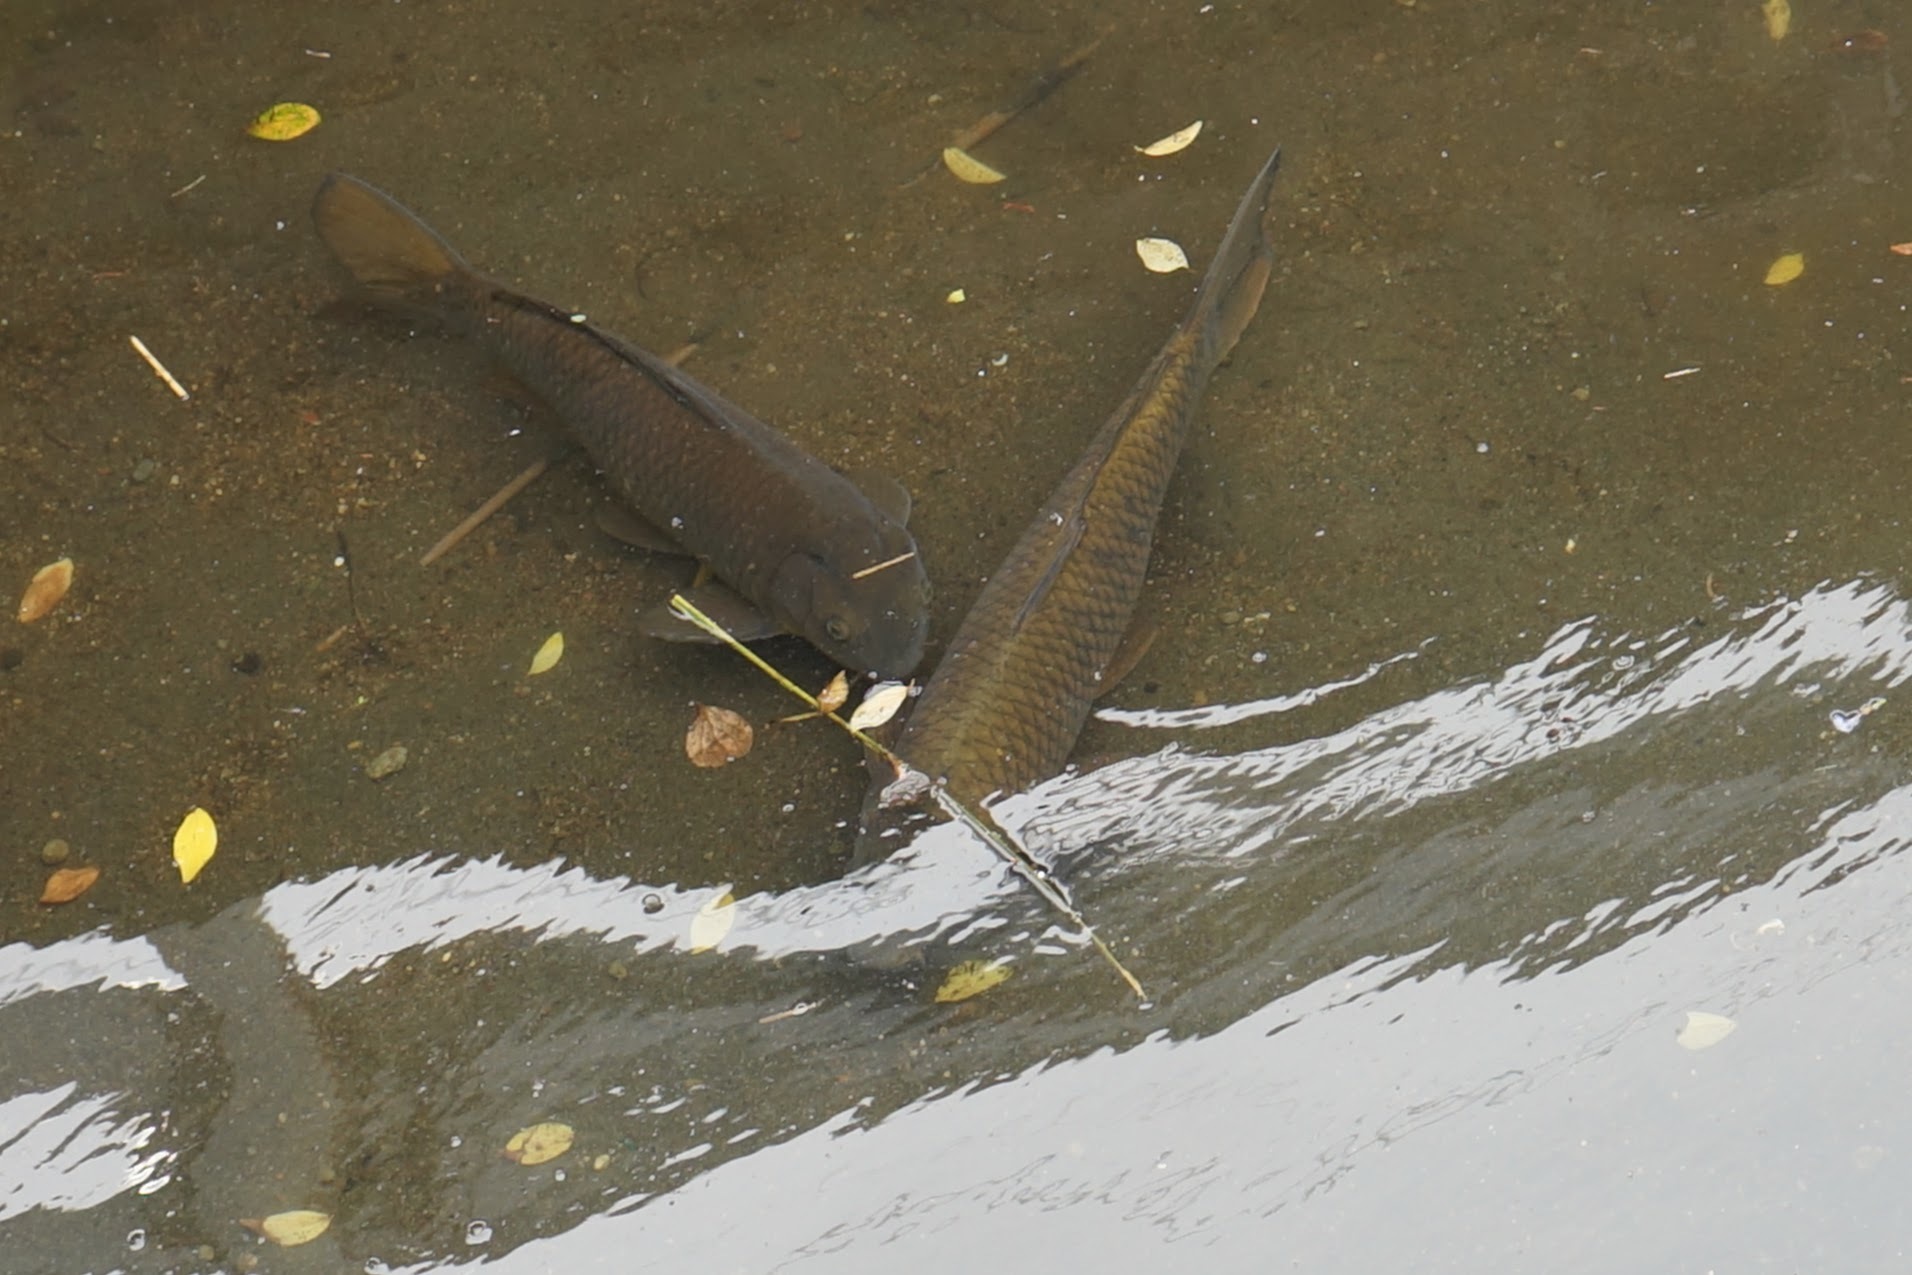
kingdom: Animalia
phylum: Chordata
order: Cypriniformes
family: Cyprinidae
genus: Cyprinus
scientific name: Cyprinus rubrofuscus
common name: Koi
